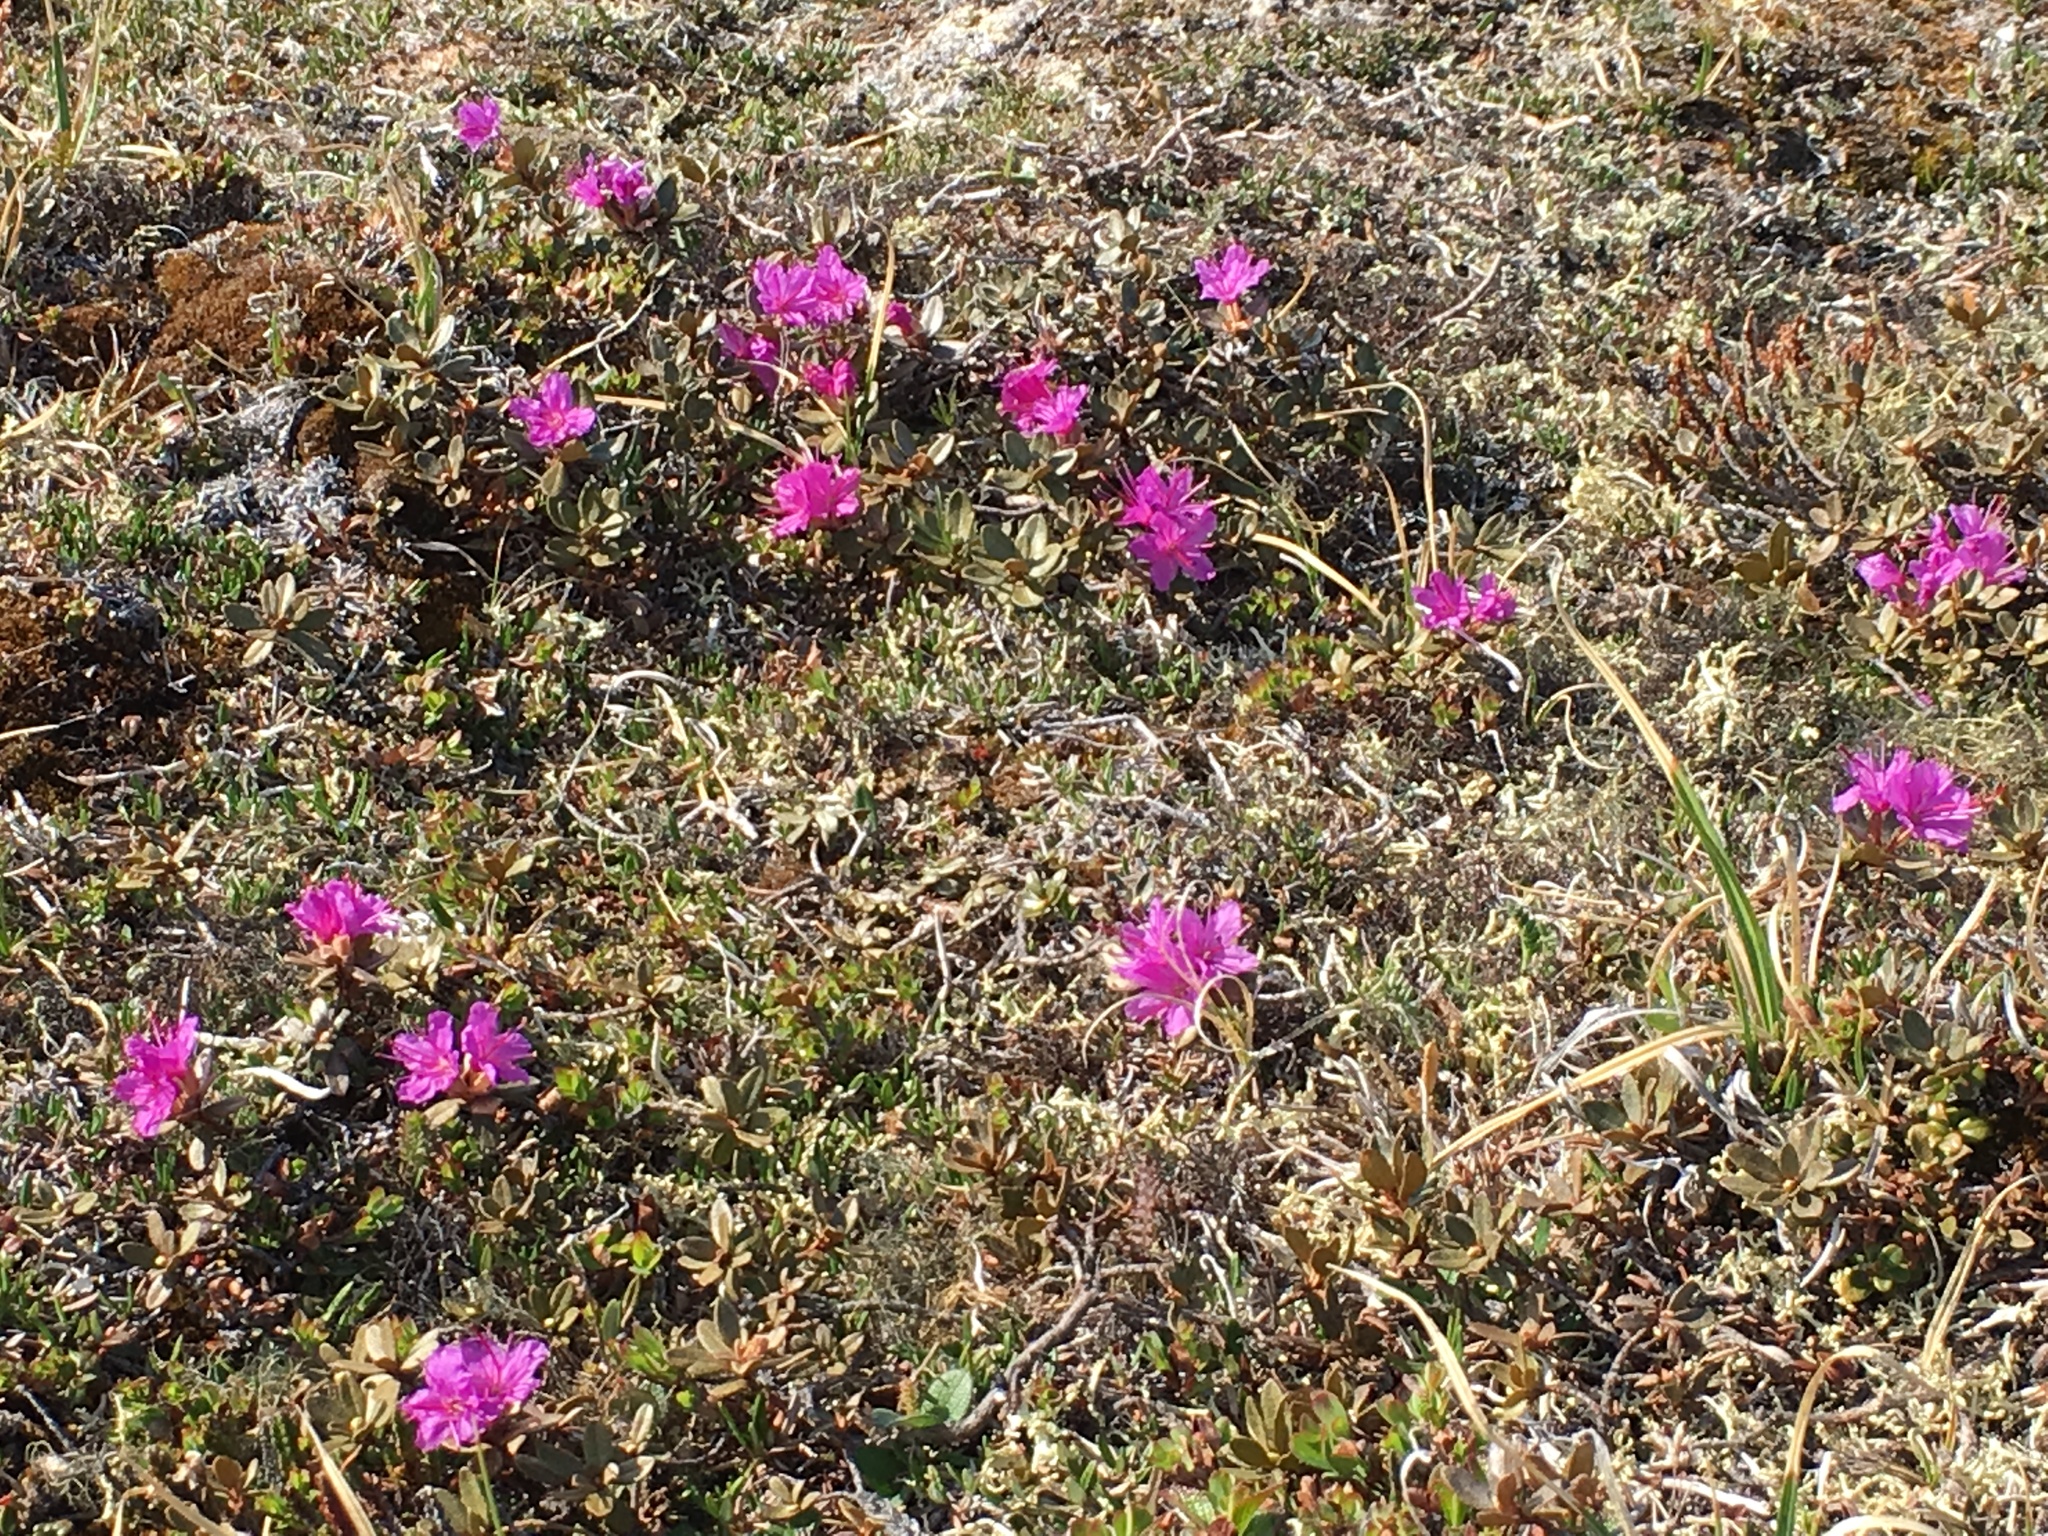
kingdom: Plantae
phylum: Tracheophyta
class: Magnoliopsida
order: Ericales
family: Ericaceae
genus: Rhododendron
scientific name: Rhododendron lapponicum
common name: Lapland rhododendron
